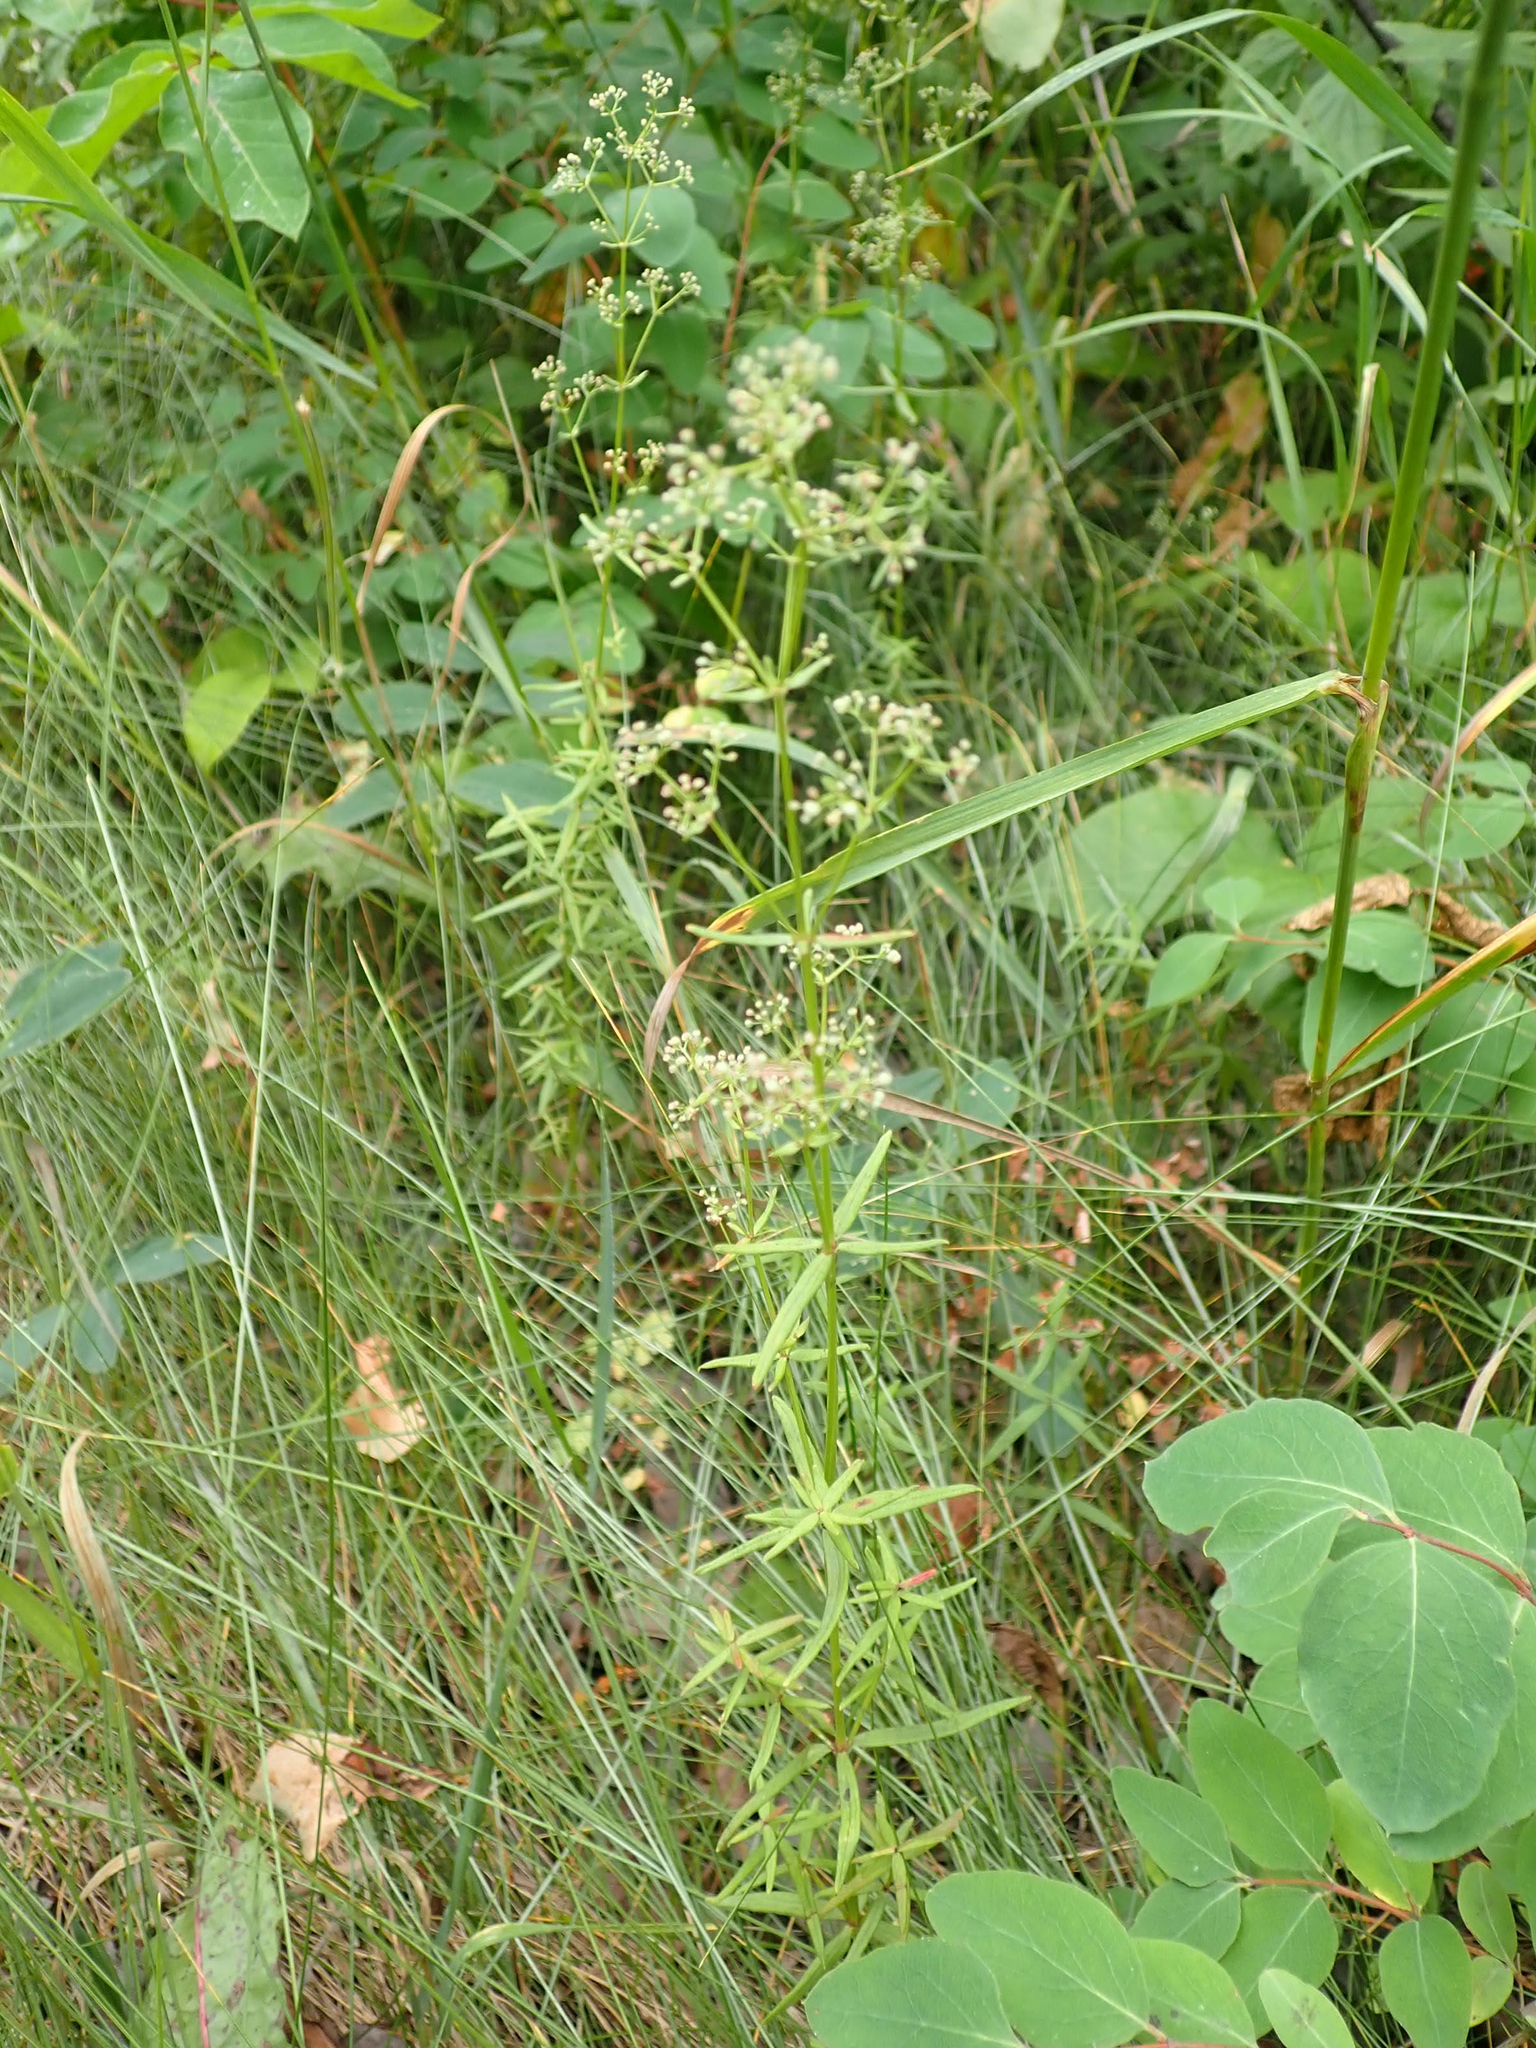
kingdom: Plantae
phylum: Tracheophyta
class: Magnoliopsida
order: Gentianales
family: Rubiaceae
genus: Galium
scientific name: Galium boreale
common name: Northern bedstraw
